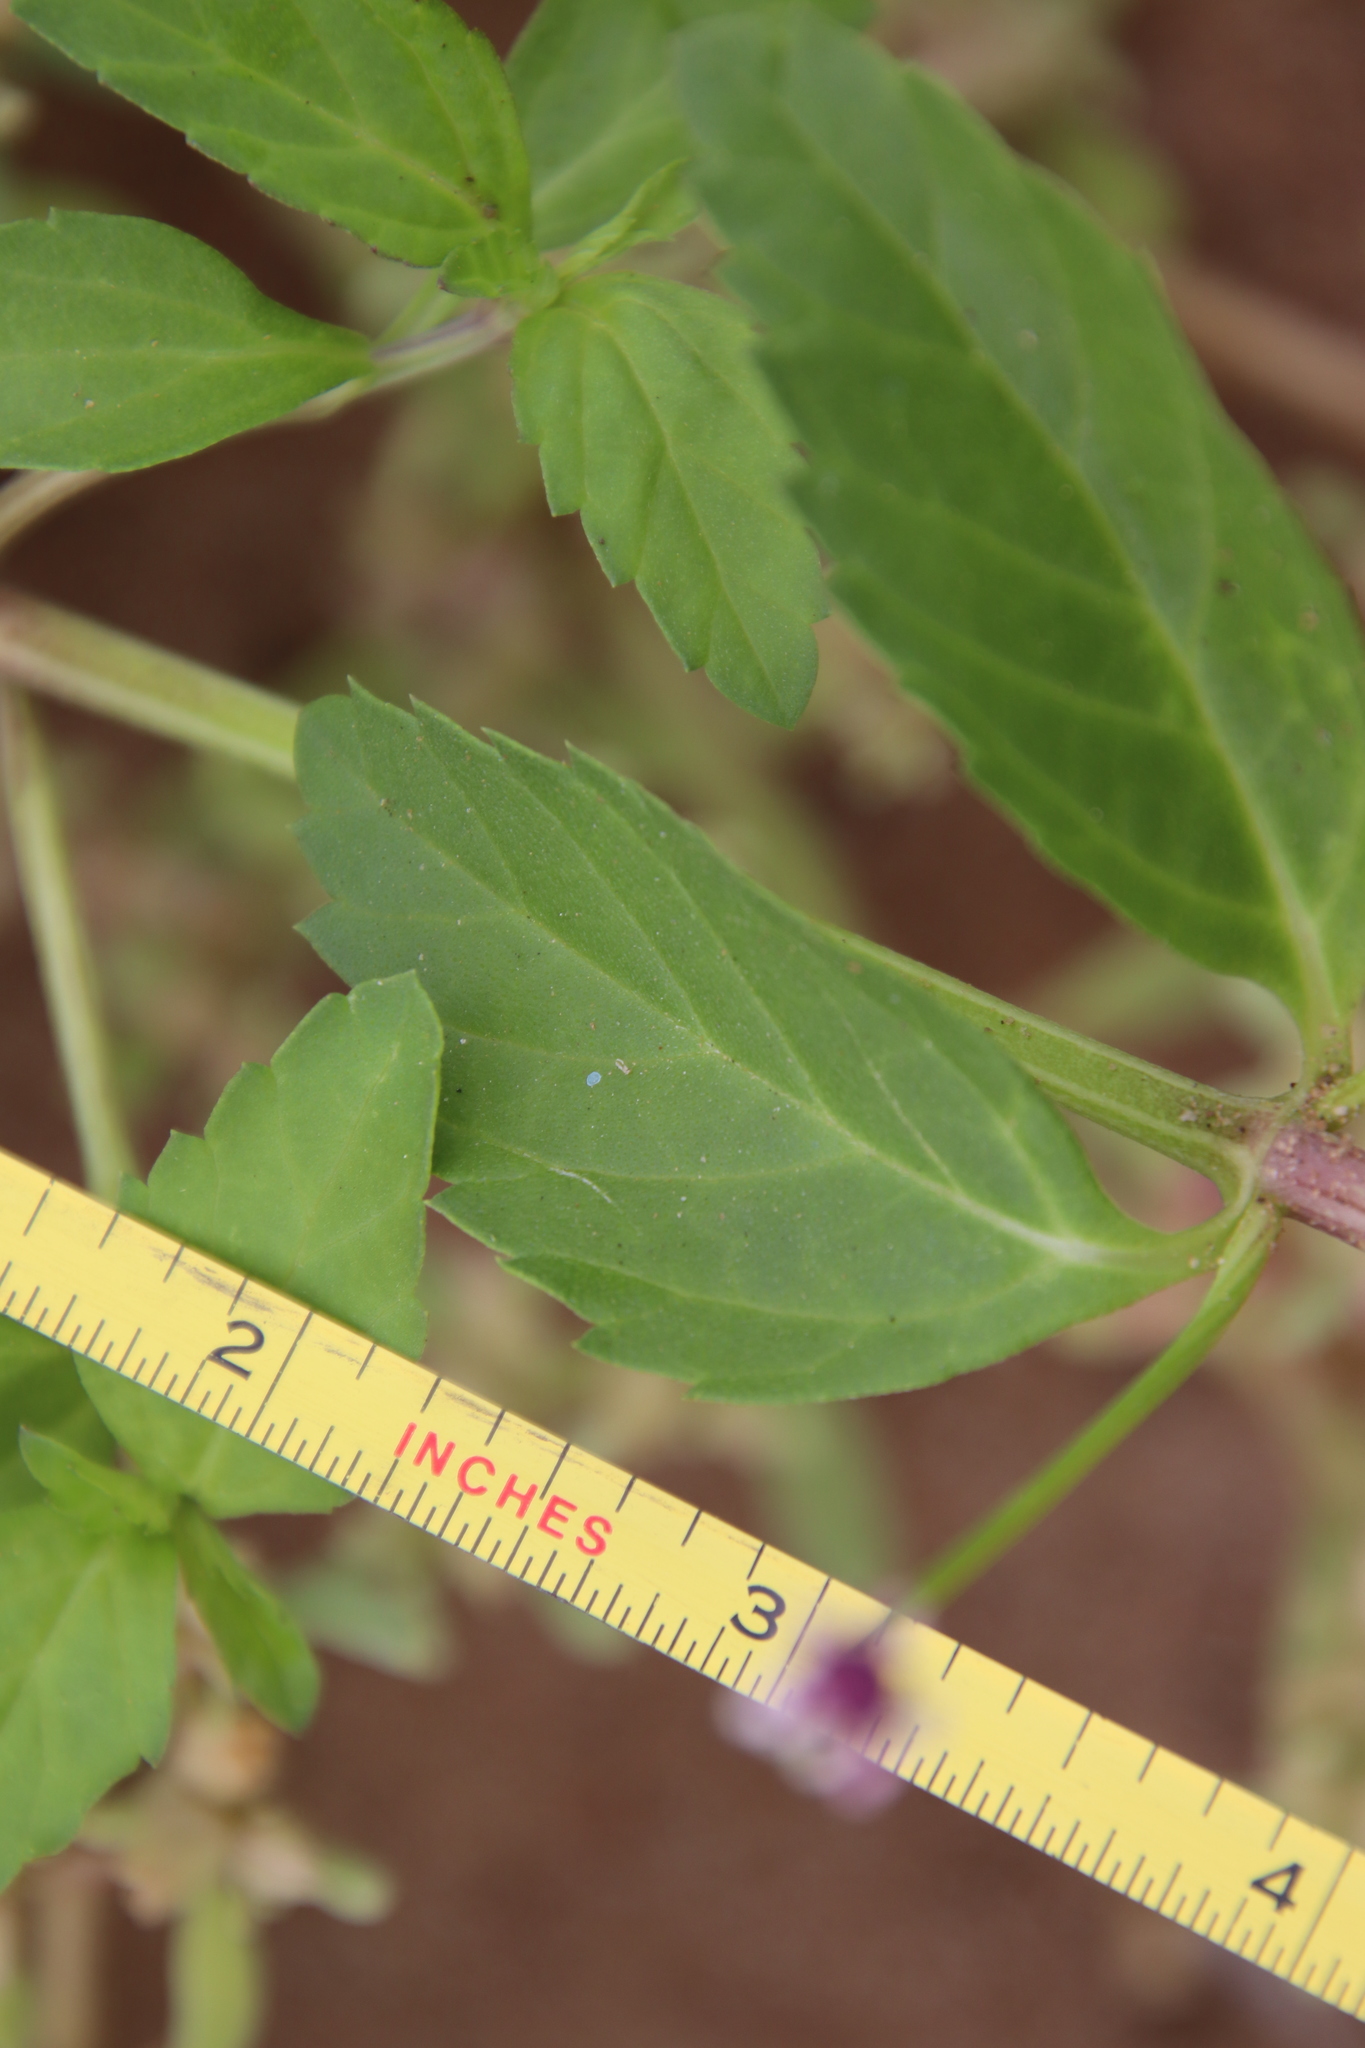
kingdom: Plantae
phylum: Tracheophyta
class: Magnoliopsida
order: Lamiales
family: Verbenaceae
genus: Phyla
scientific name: Phyla lanceolata
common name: Northern fogfruit
